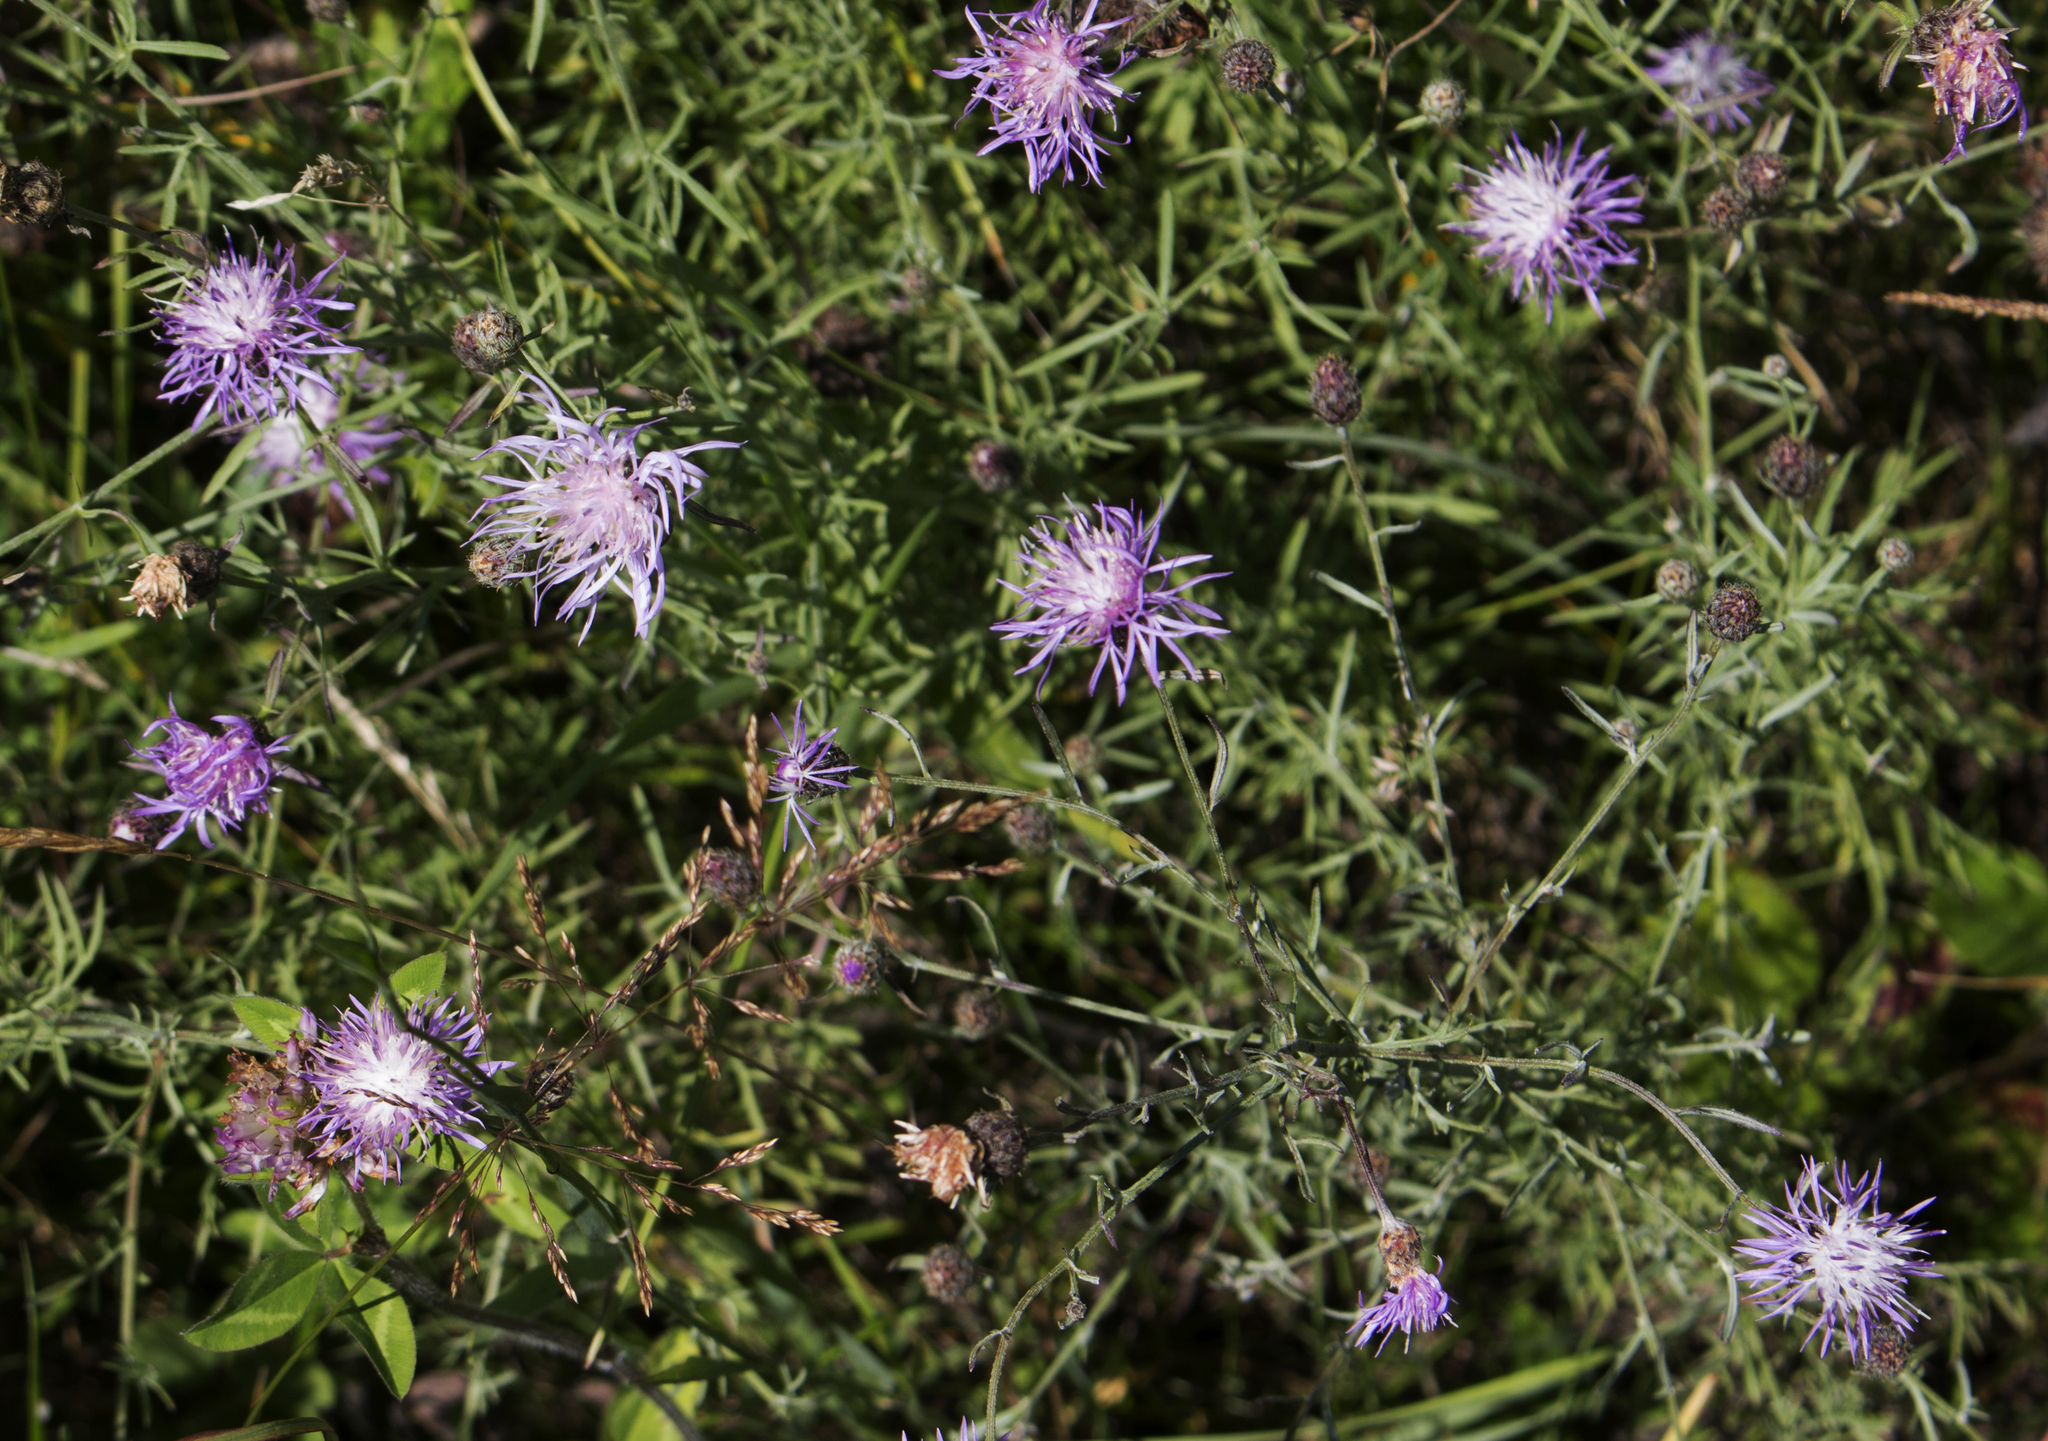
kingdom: Plantae
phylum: Tracheophyta
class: Magnoliopsida
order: Asterales
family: Asteraceae
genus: Centaurea
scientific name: Centaurea stoebe
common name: Spotted knapweed
